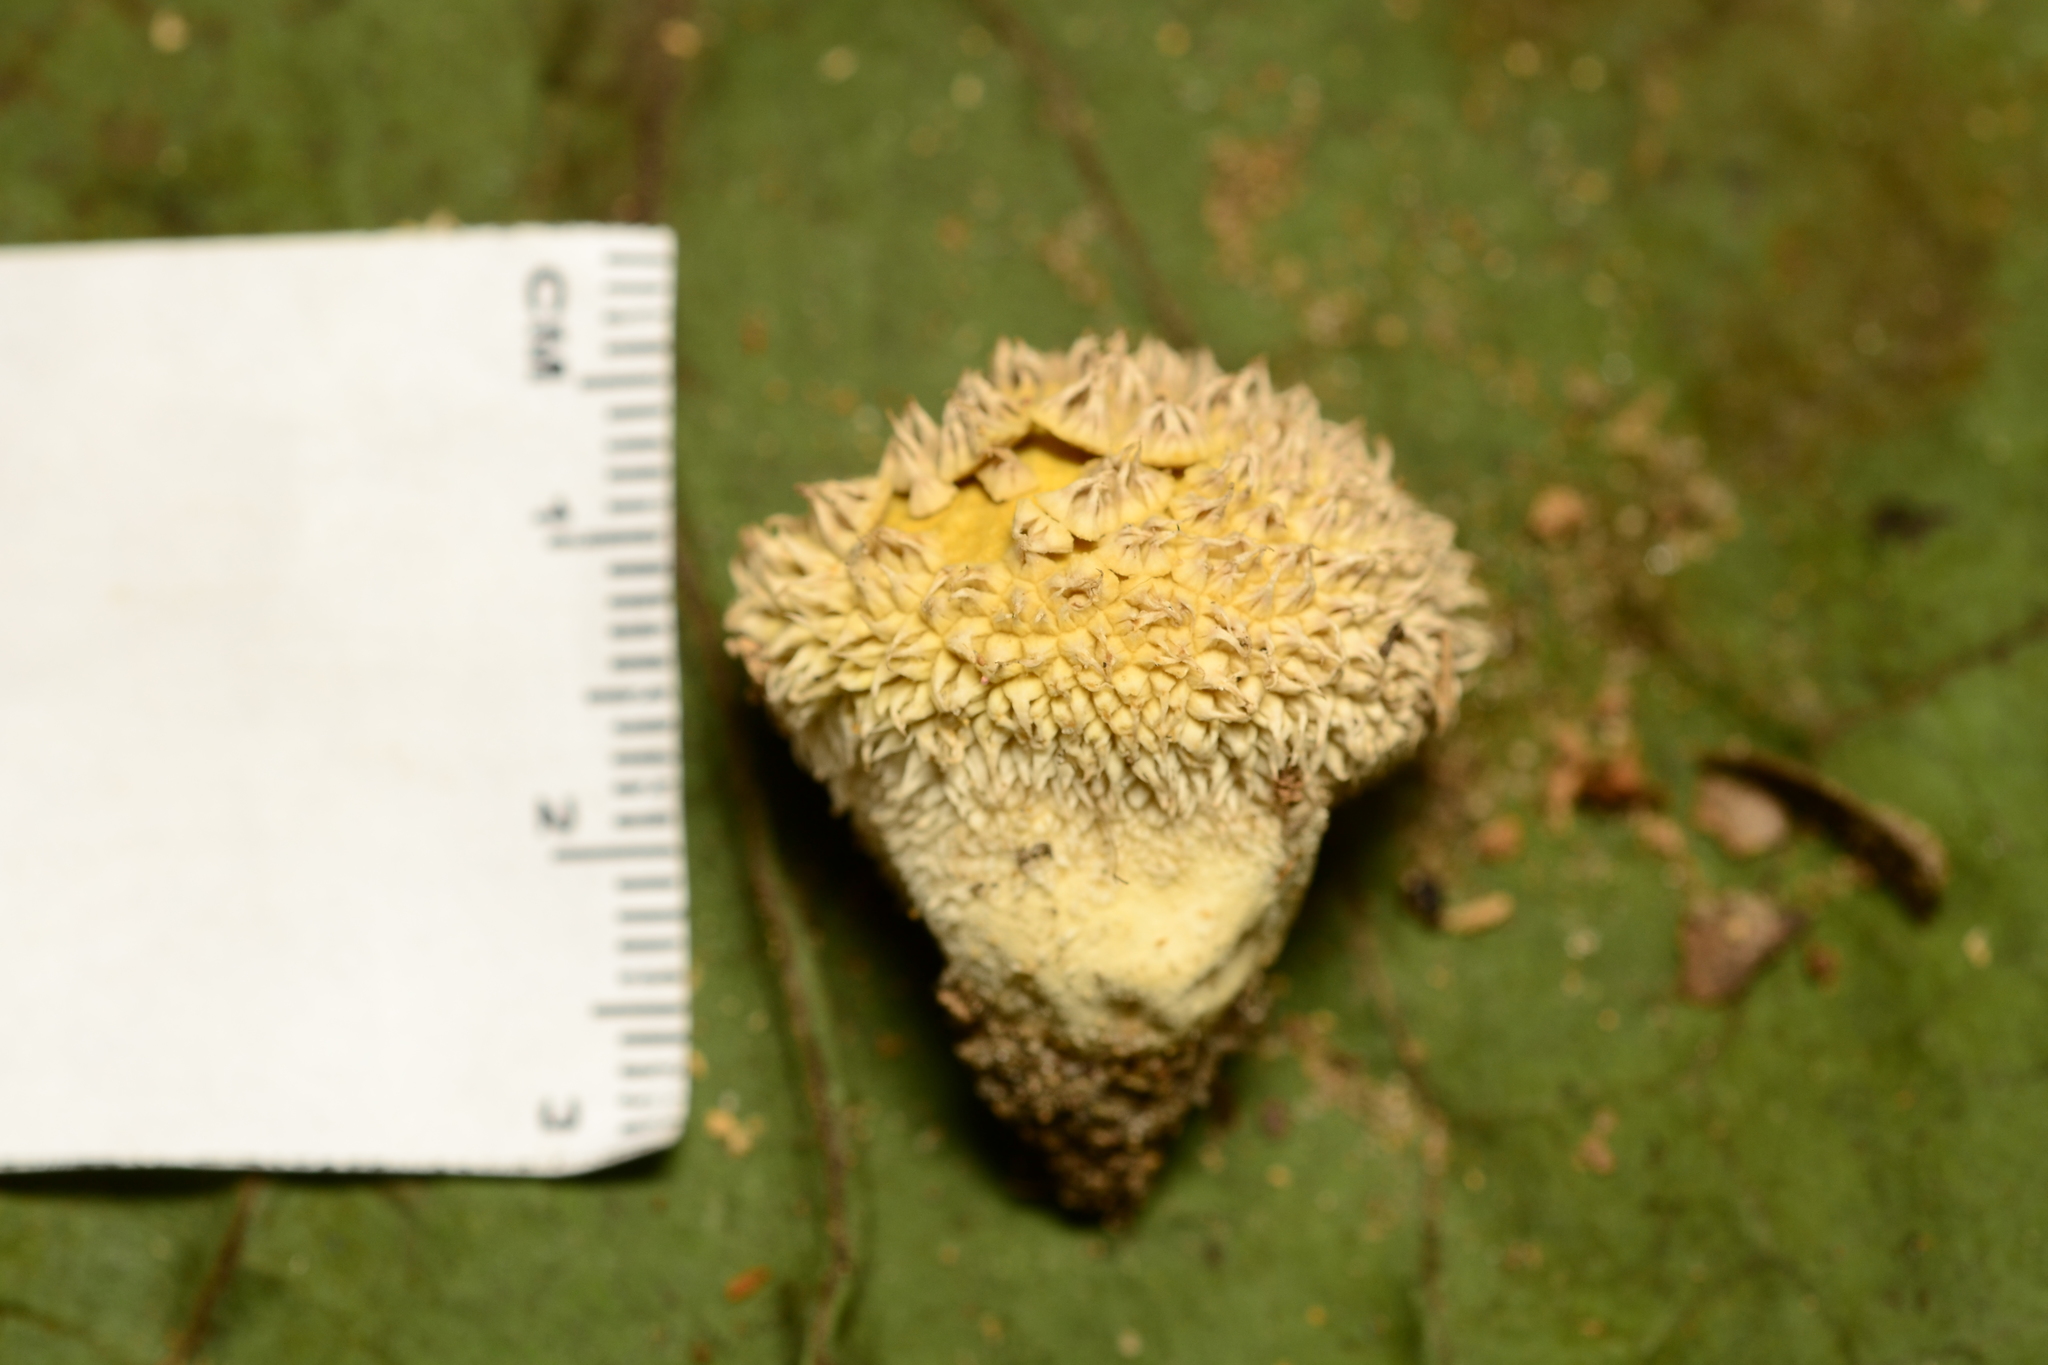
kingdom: Fungi
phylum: Basidiomycota
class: Agaricomycetes
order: Agaricales
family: Agaricaceae
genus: Lycoperdon
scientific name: Lycoperdon marginatum
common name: Peeling puffball
